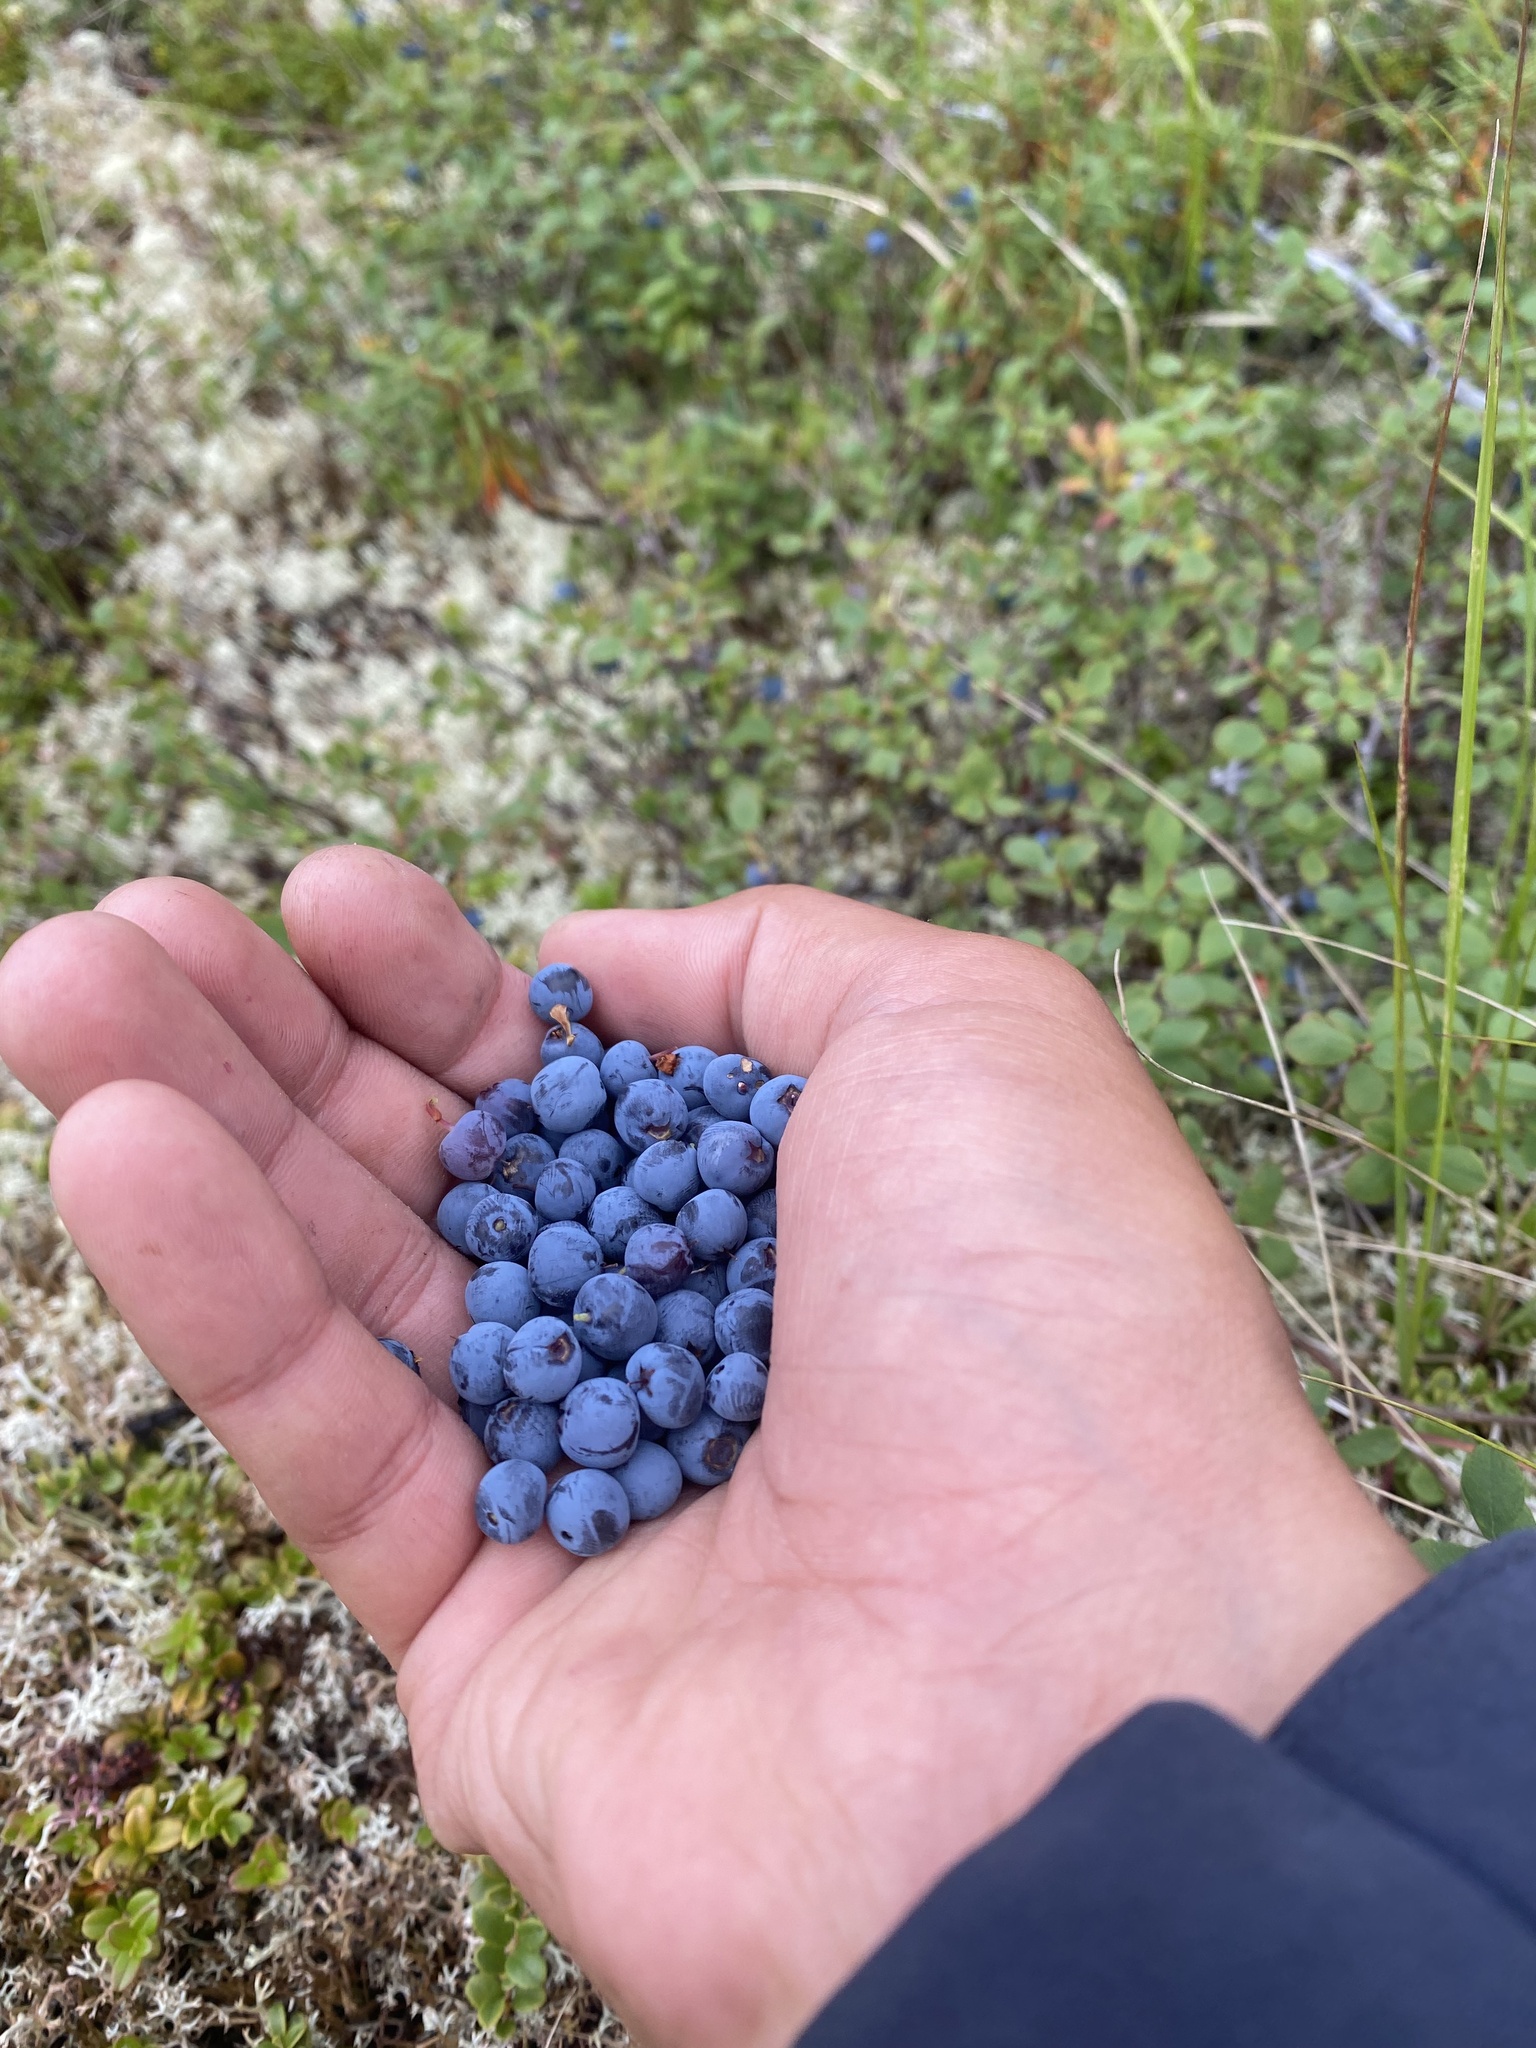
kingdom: Plantae
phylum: Tracheophyta
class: Magnoliopsida
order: Ericales
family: Ericaceae
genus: Vaccinium
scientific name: Vaccinium uliginosum
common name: Bog bilberry
